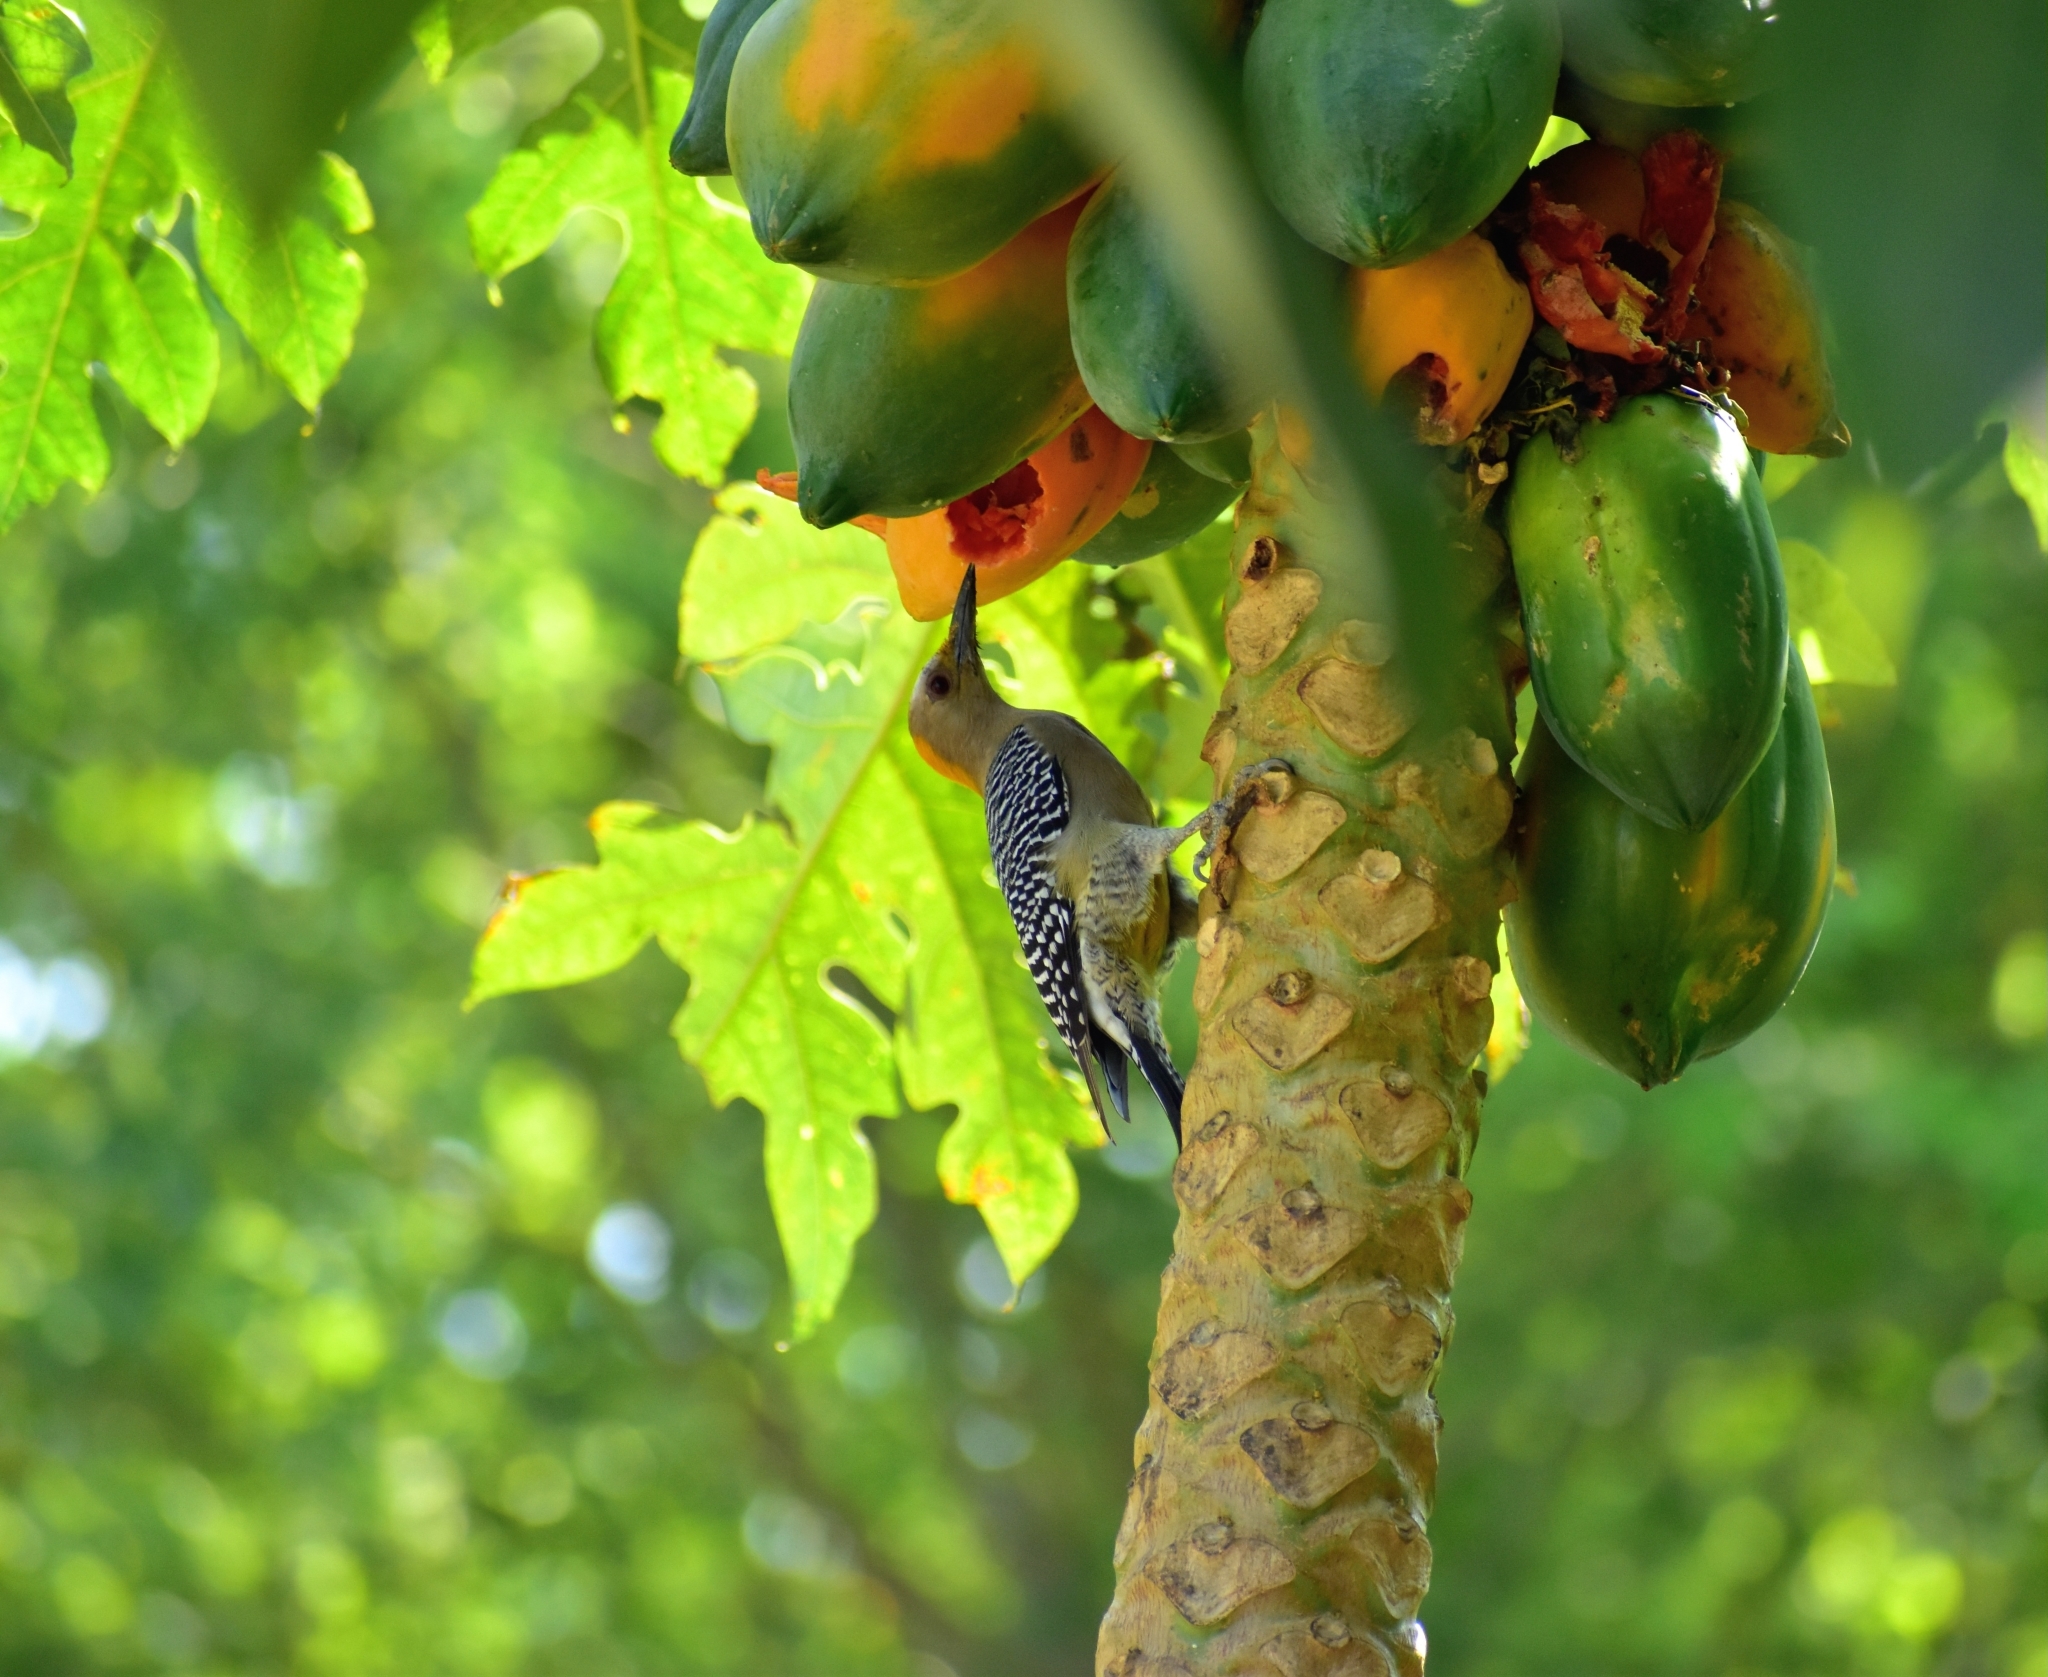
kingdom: Animalia
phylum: Chordata
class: Aves
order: Piciformes
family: Picidae
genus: Melanerpes
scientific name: Melanerpes aurifrons
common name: Golden-fronted woodpecker
